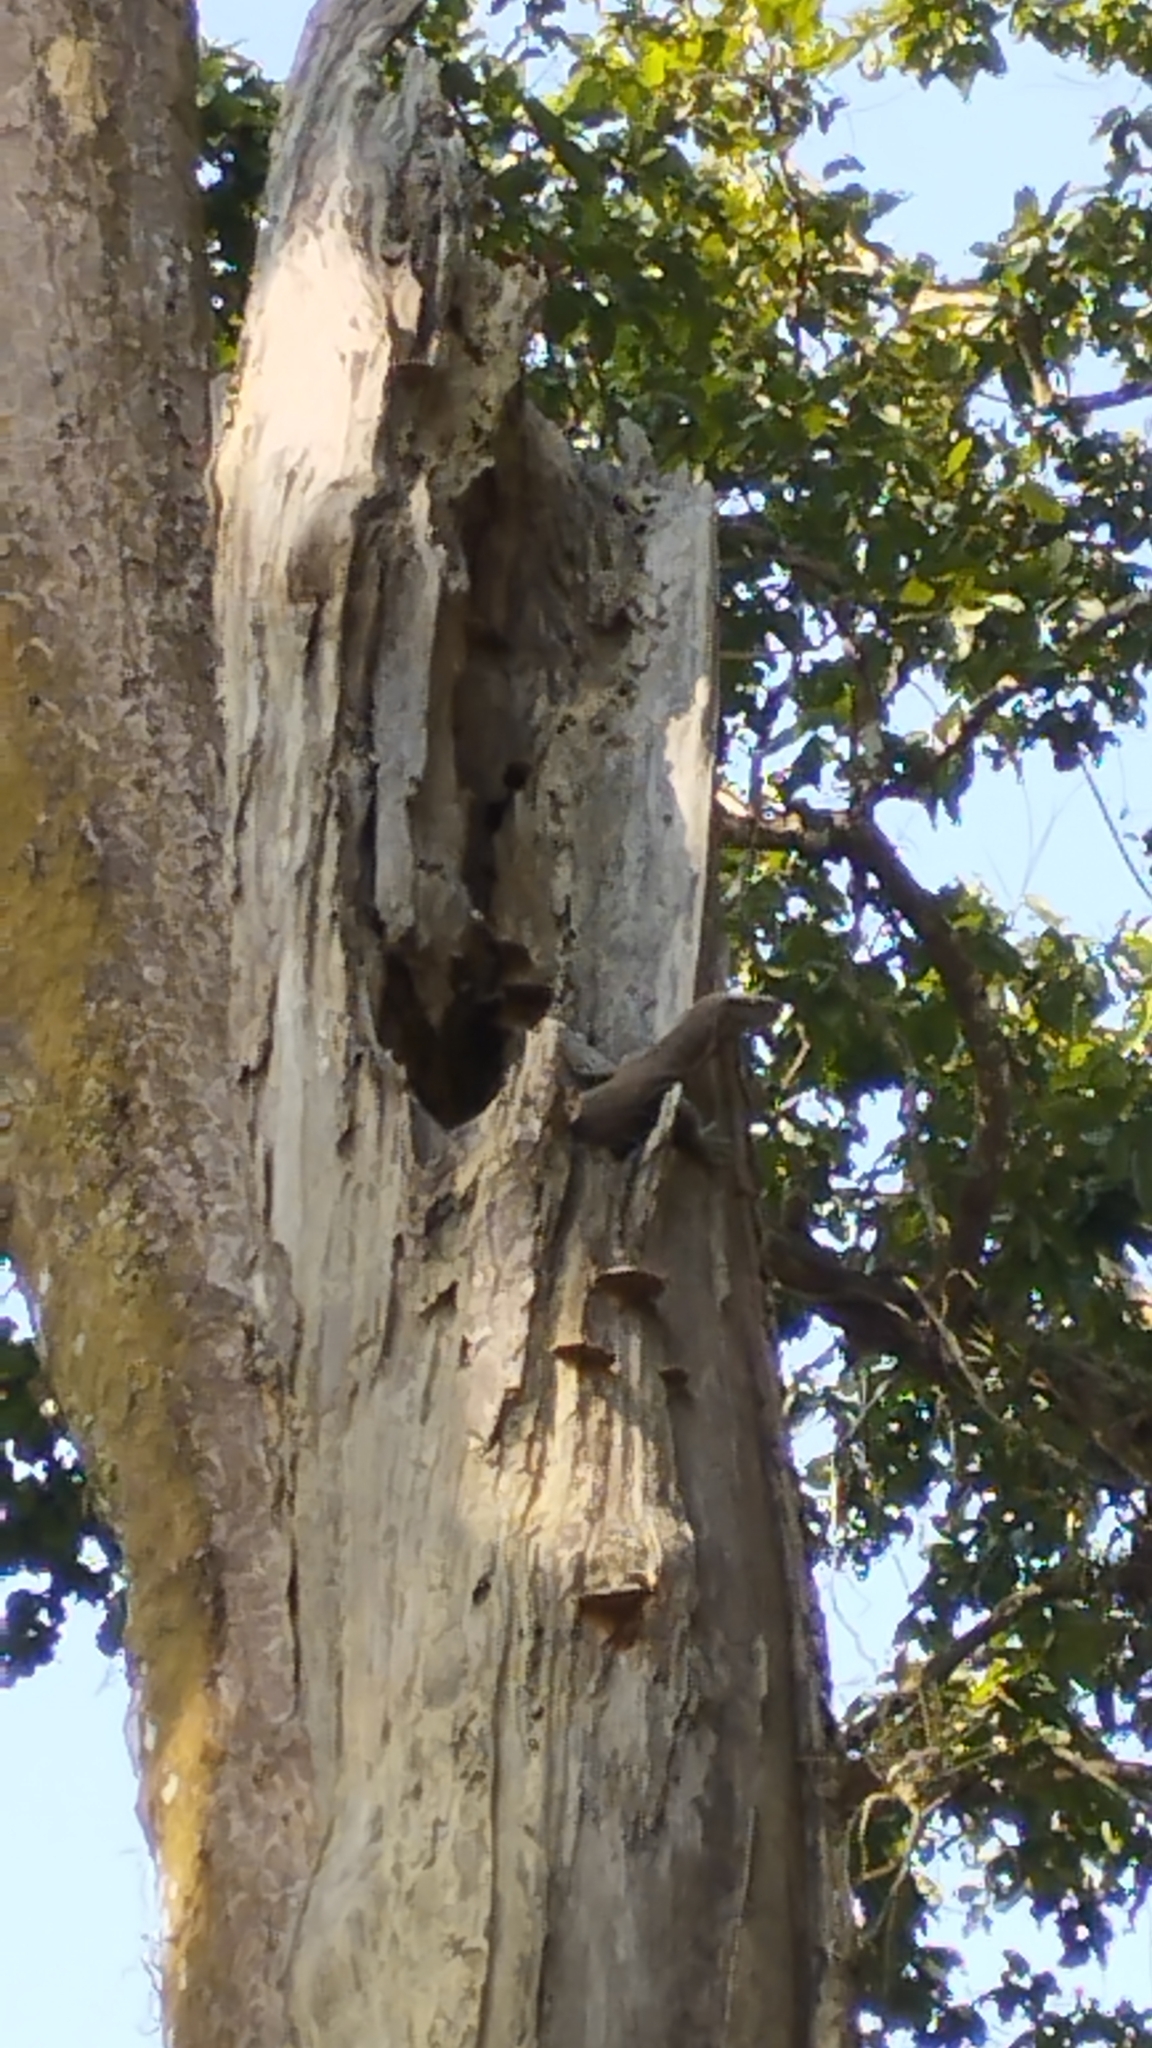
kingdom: Animalia
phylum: Chordata
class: Squamata
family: Varanidae
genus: Varanus
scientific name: Varanus bengalensis
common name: Bengal monitor
